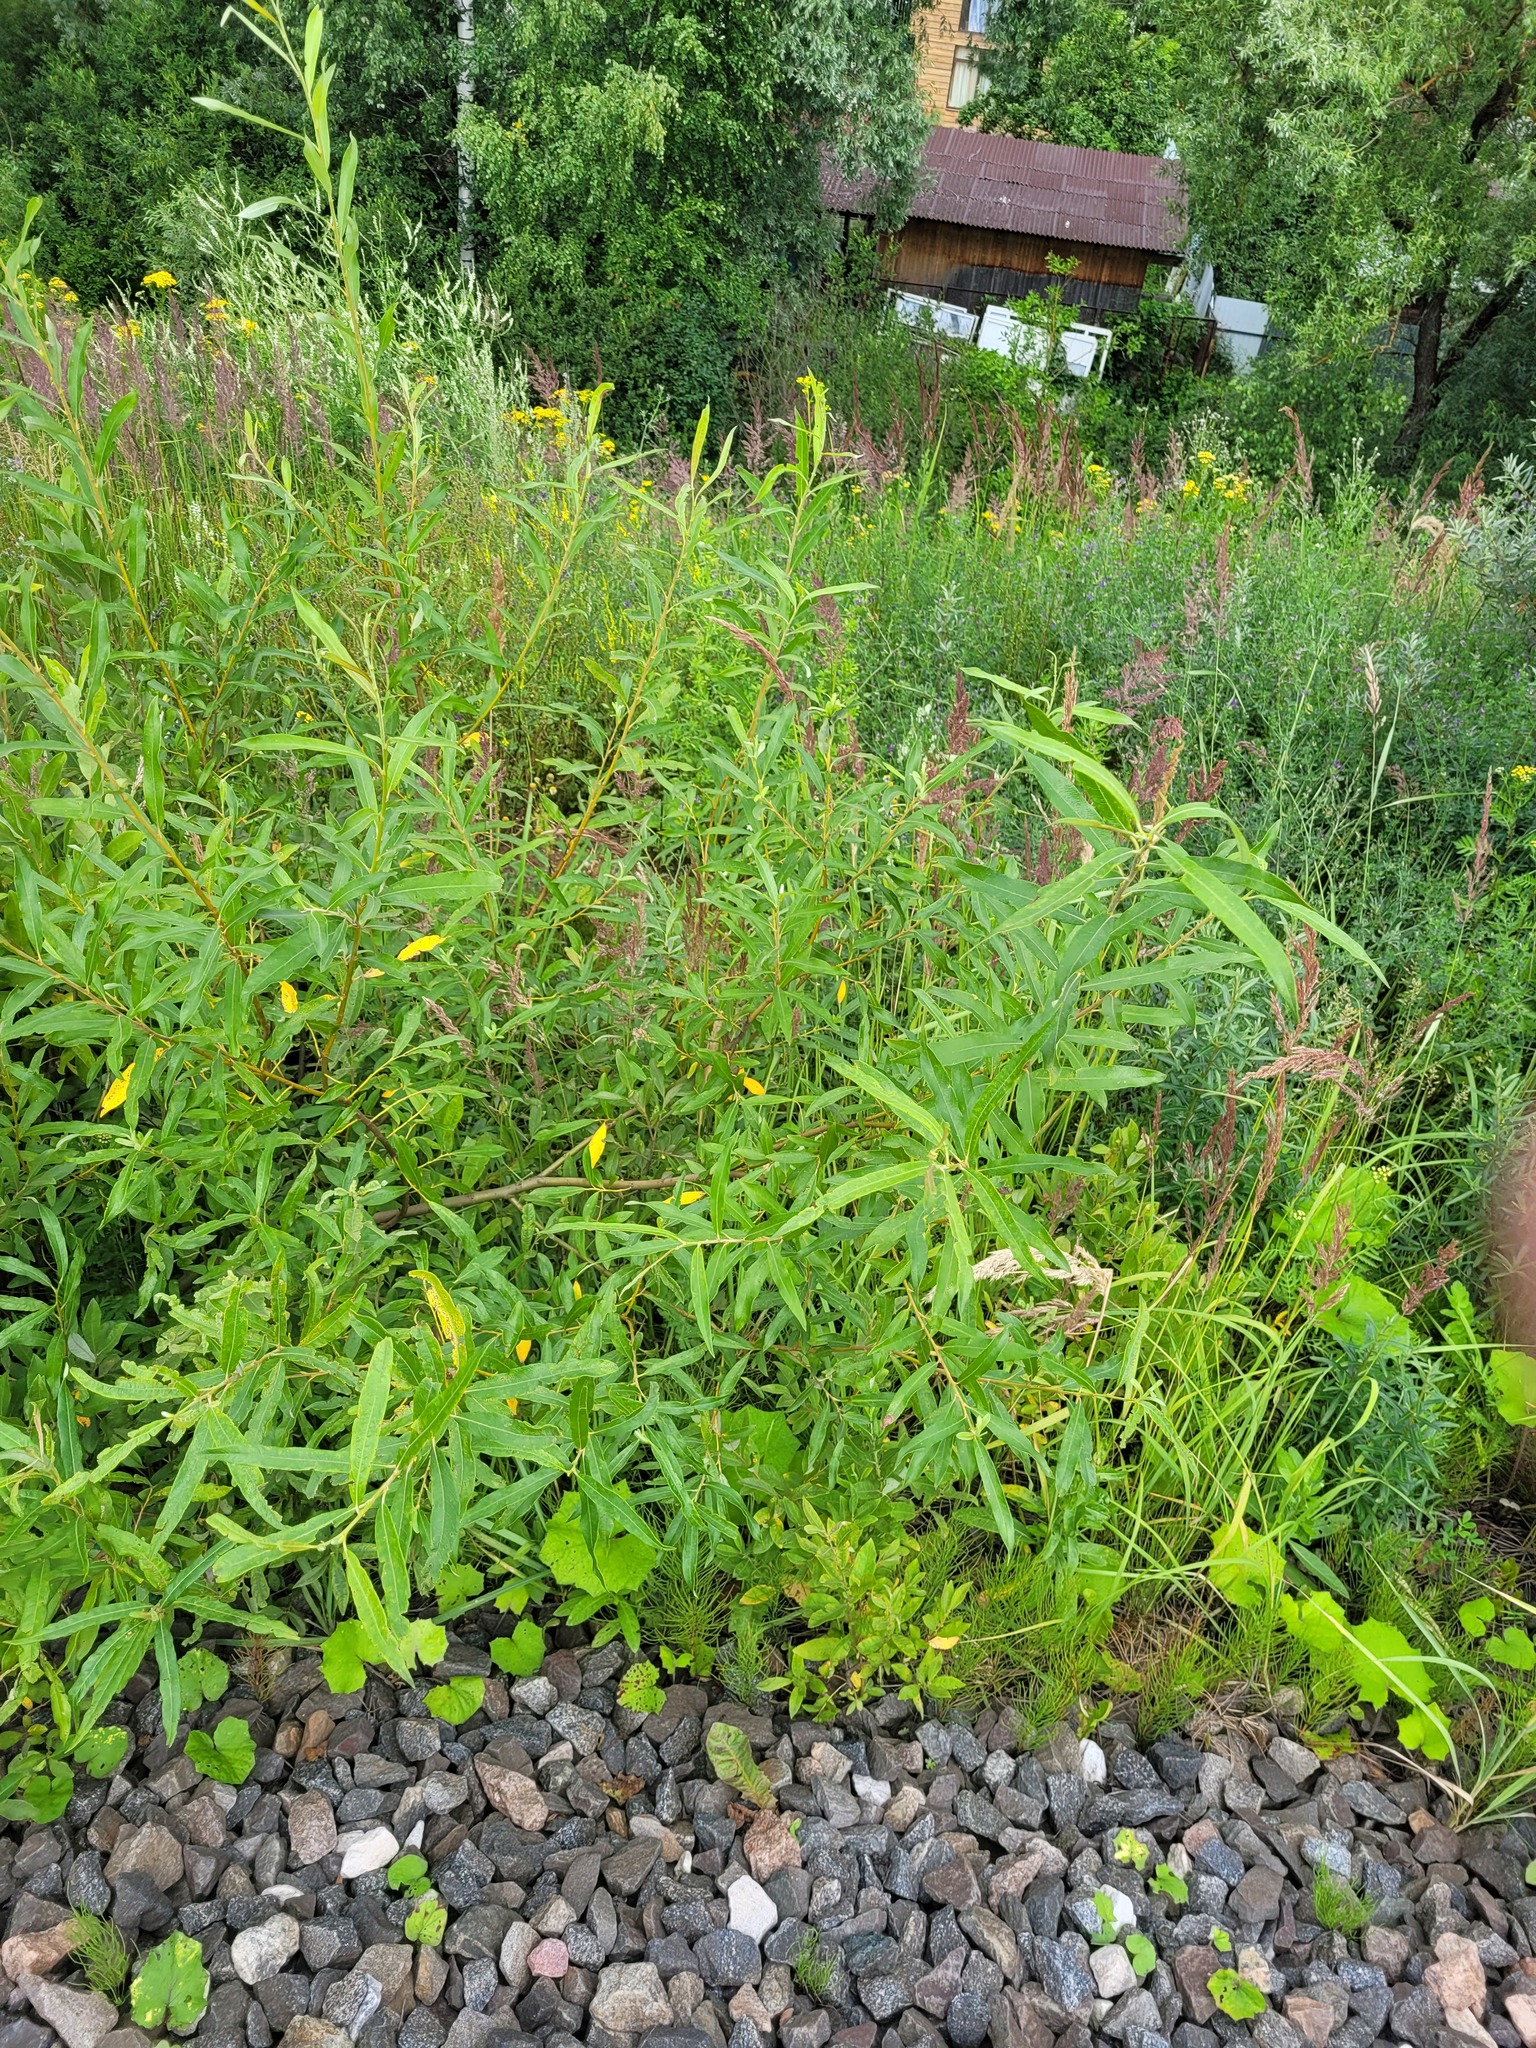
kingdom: Plantae
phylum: Tracheophyta
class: Magnoliopsida
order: Malpighiales
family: Salicaceae
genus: Salix
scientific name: Salix viminalis
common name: Osier
